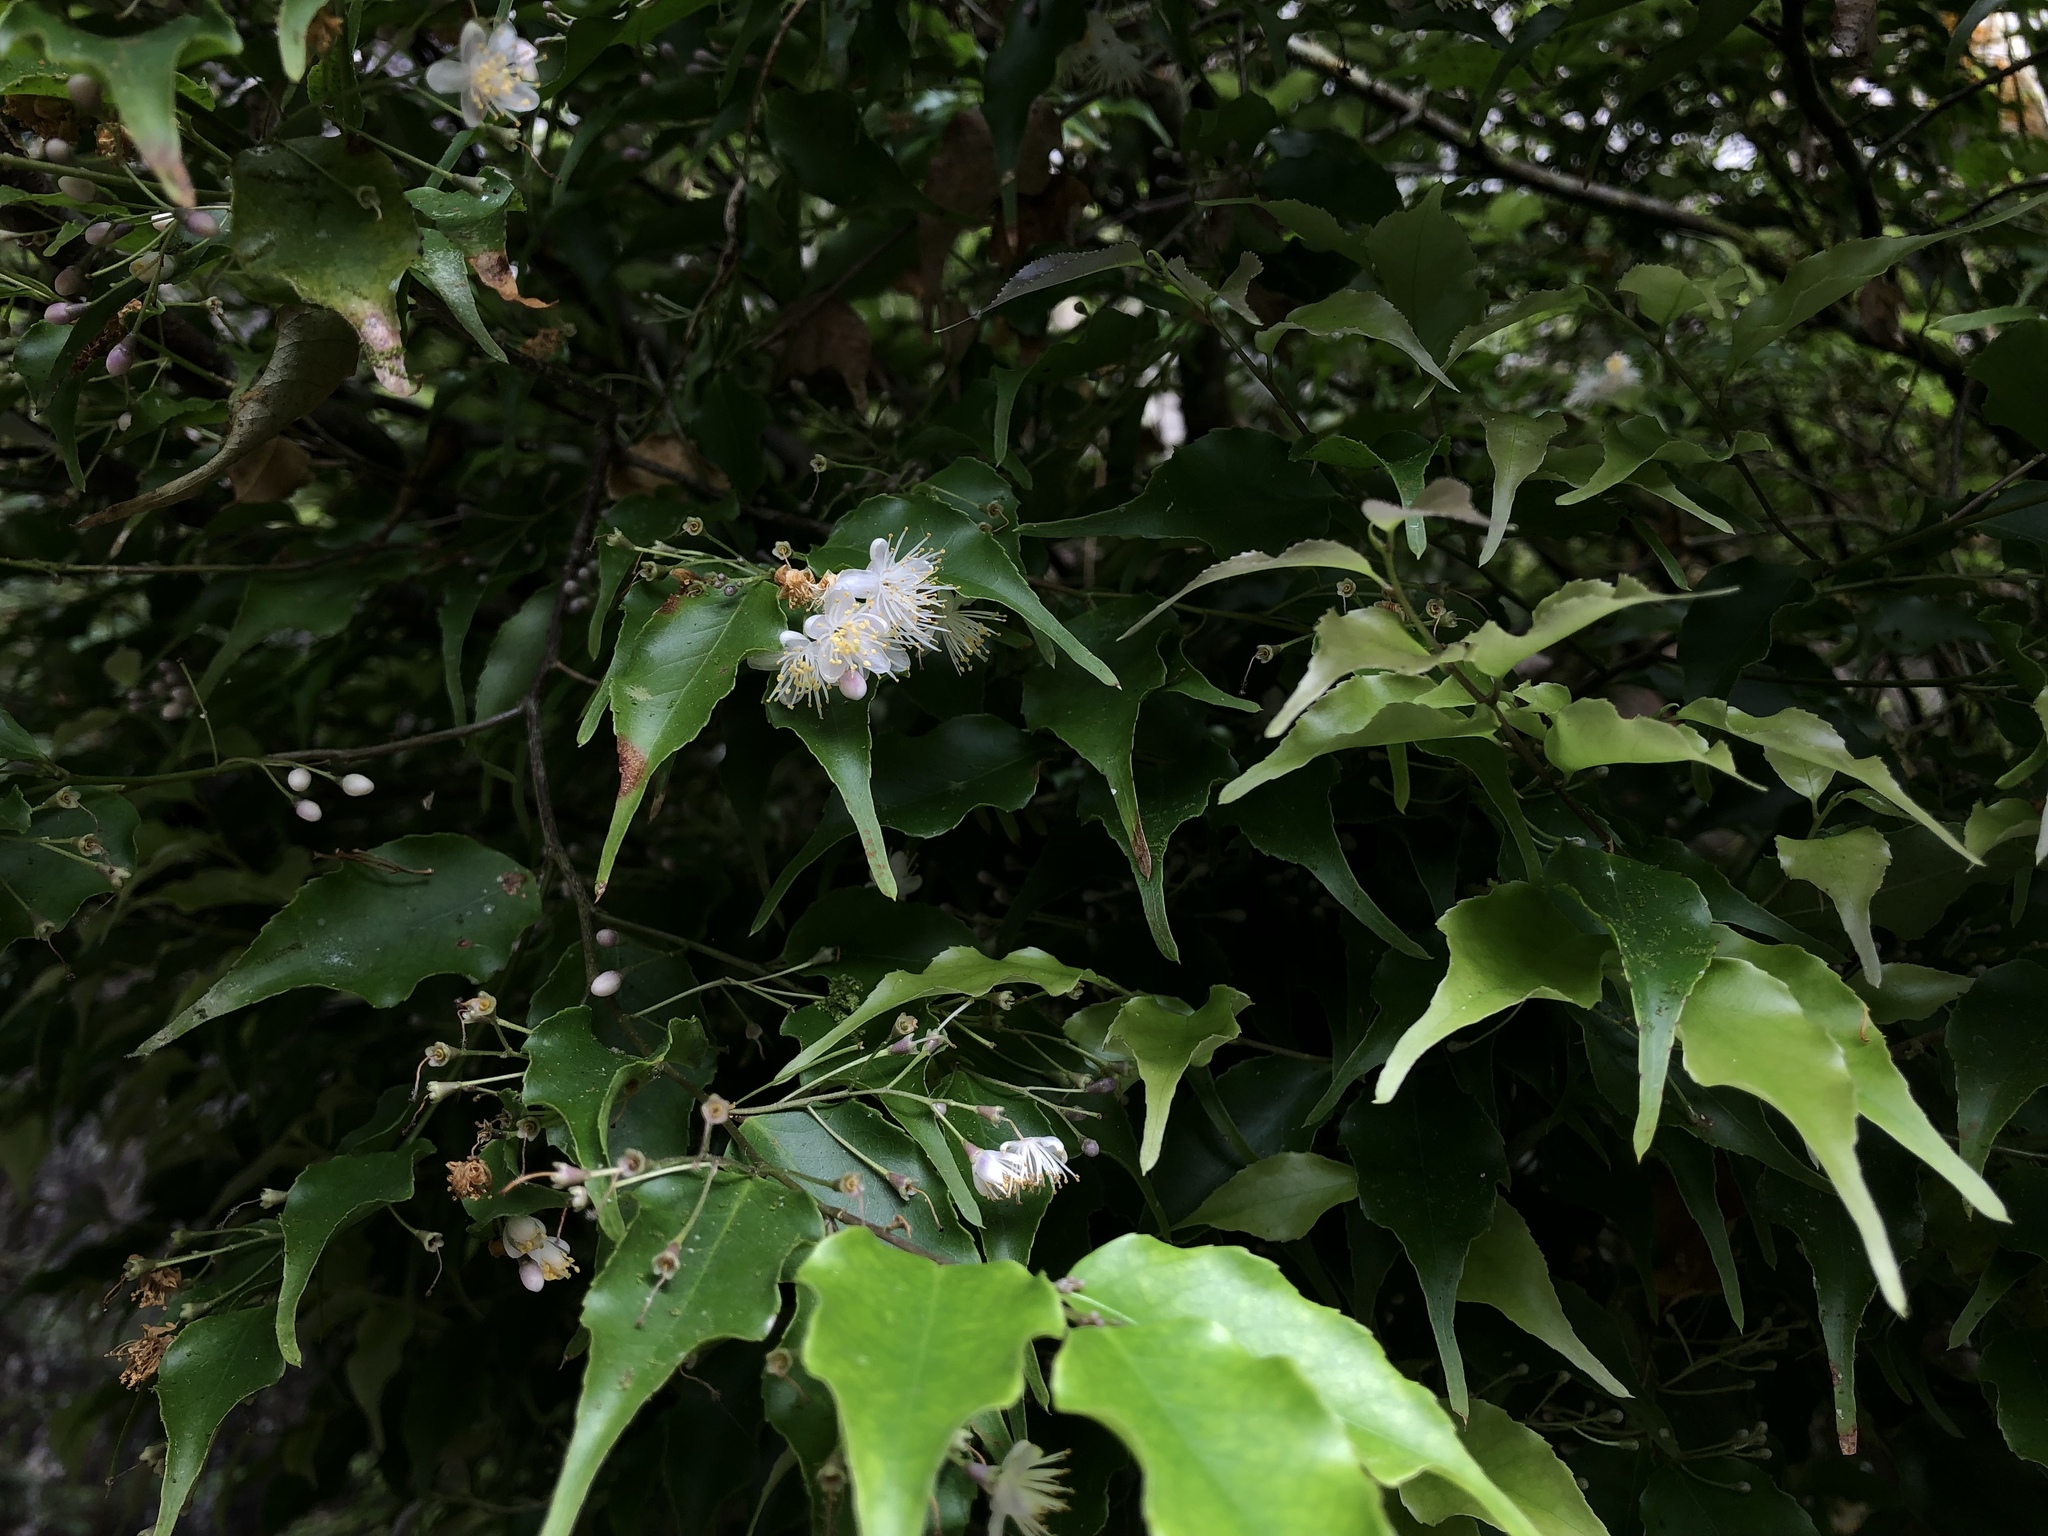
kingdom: Plantae
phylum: Tracheophyta
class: Magnoliopsida
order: Ericales
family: Symplocaceae
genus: Symplocos
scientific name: Symplocos sumuntia
